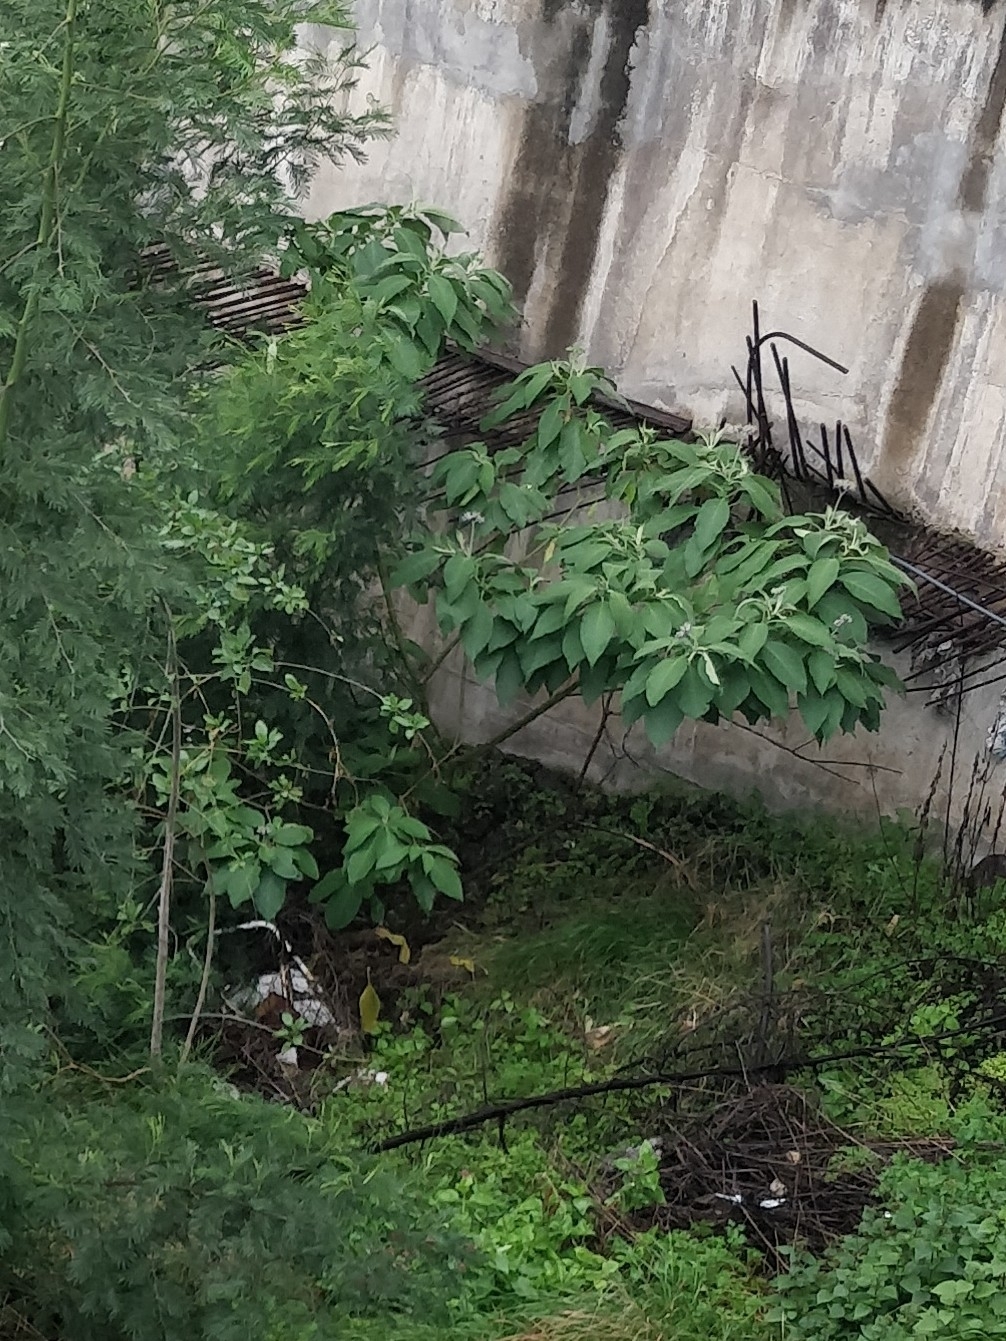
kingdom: Plantae
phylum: Tracheophyta
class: Magnoliopsida
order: Solanales
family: Solanaceae
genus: Solanum
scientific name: Solanum mauritianum
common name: Earleaf nightshade
